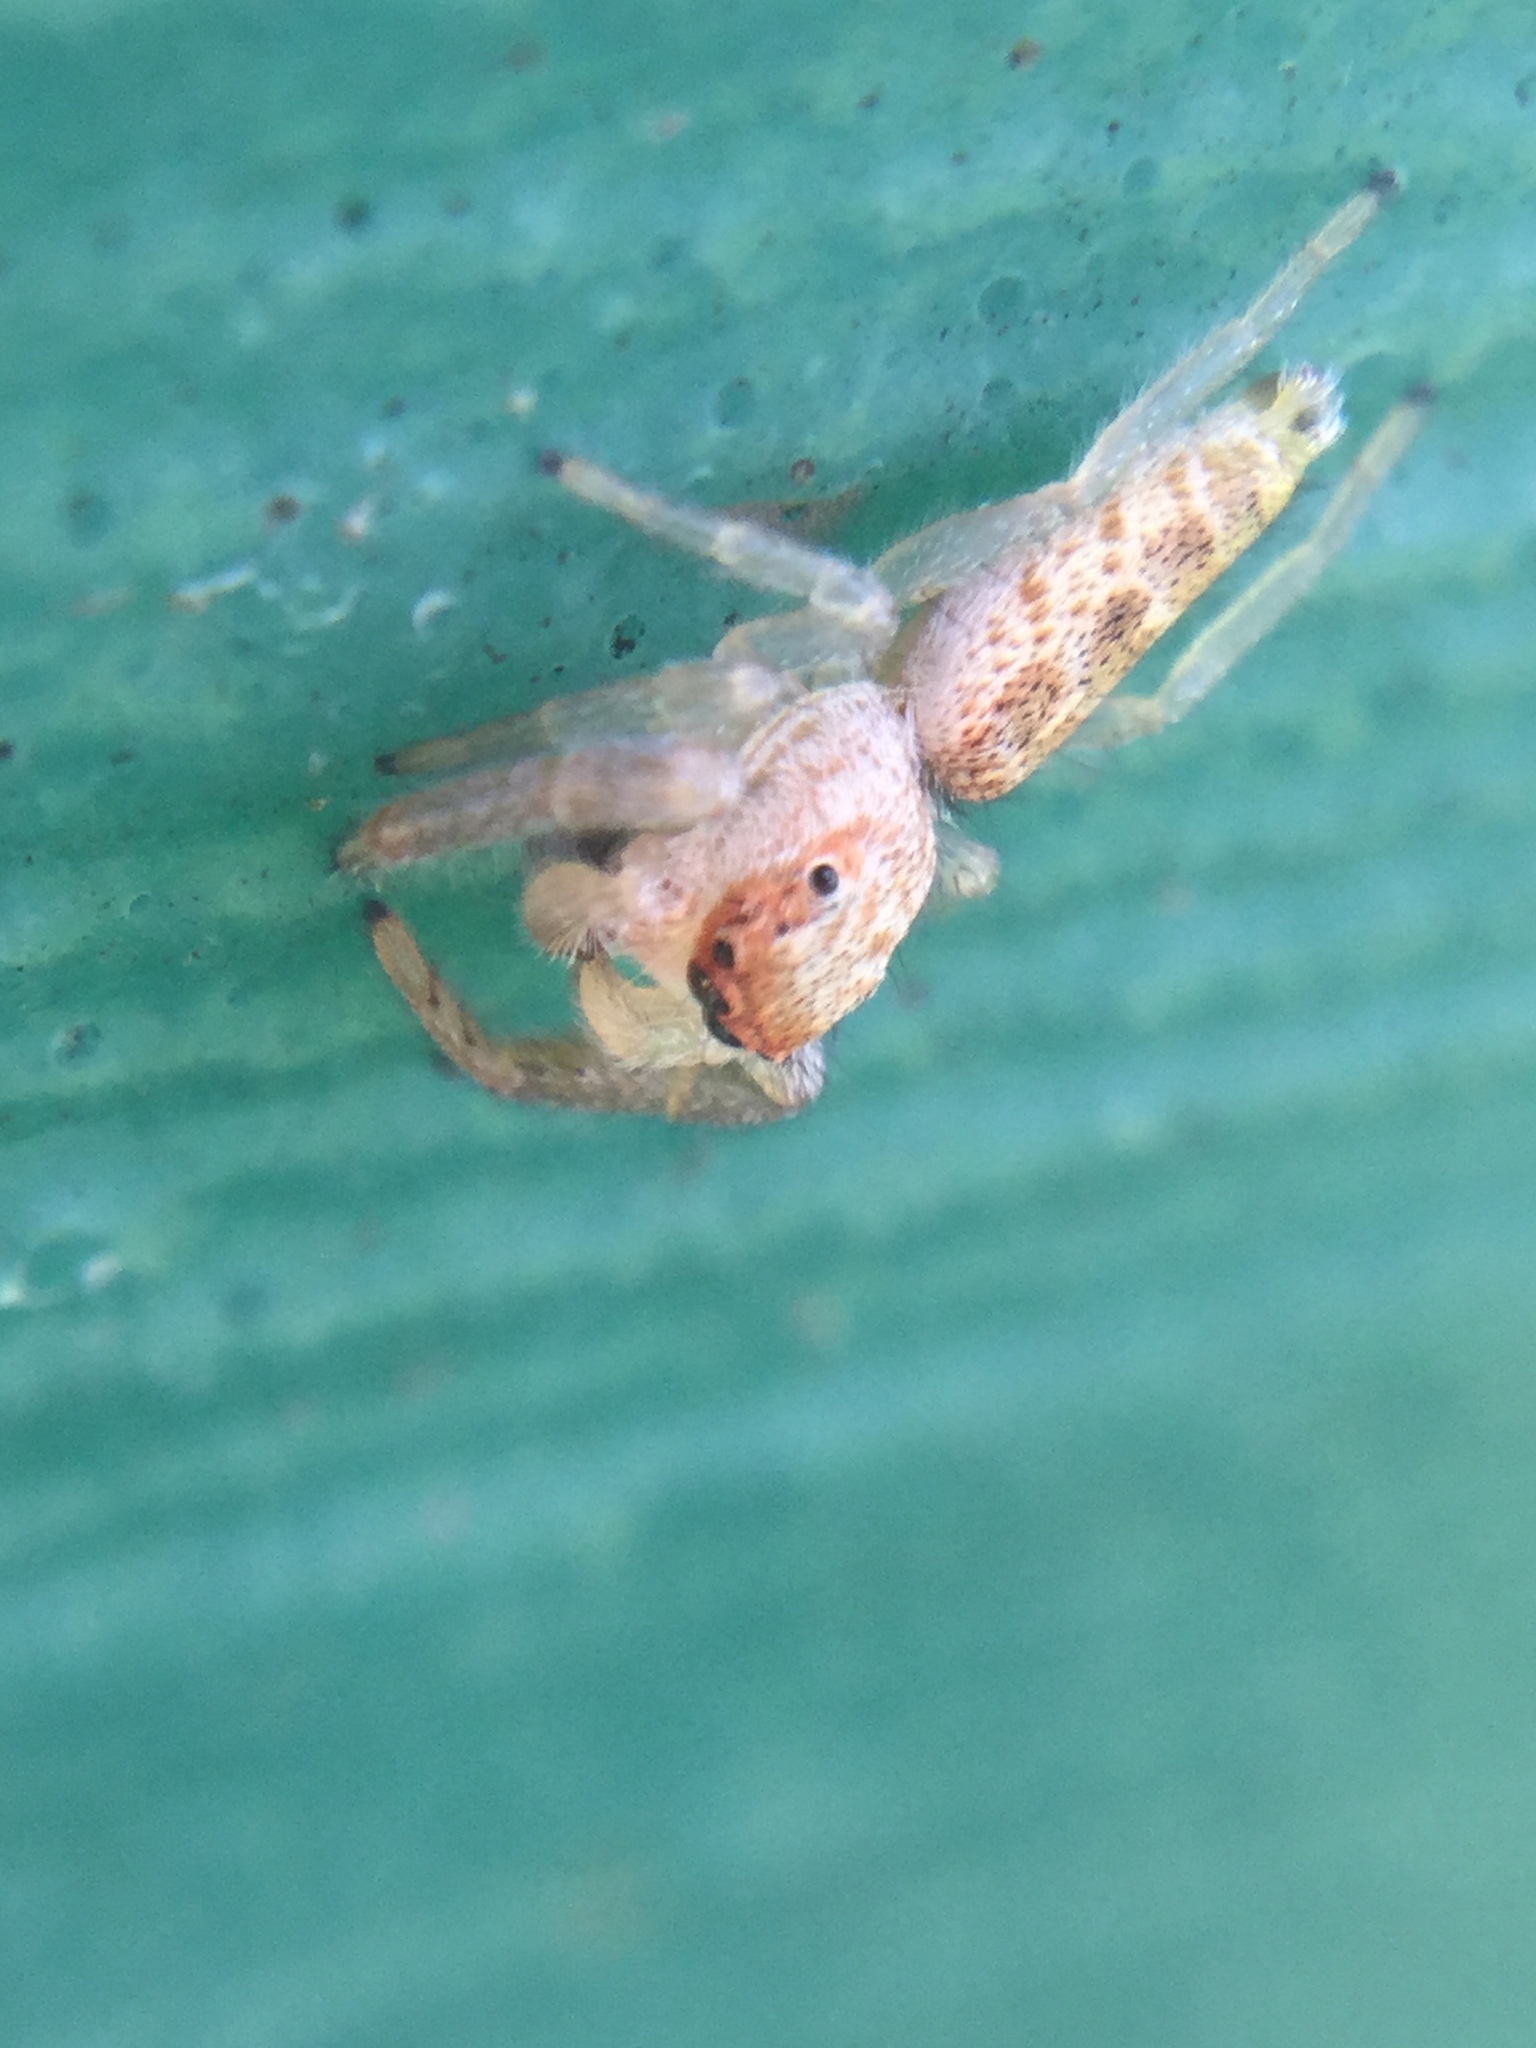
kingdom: Animalia
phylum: Arthropoda
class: Arachnida
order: Araneae
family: Salticidae
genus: Hentzia
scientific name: Hentzia palmarum
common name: Common hentz jumping spider
